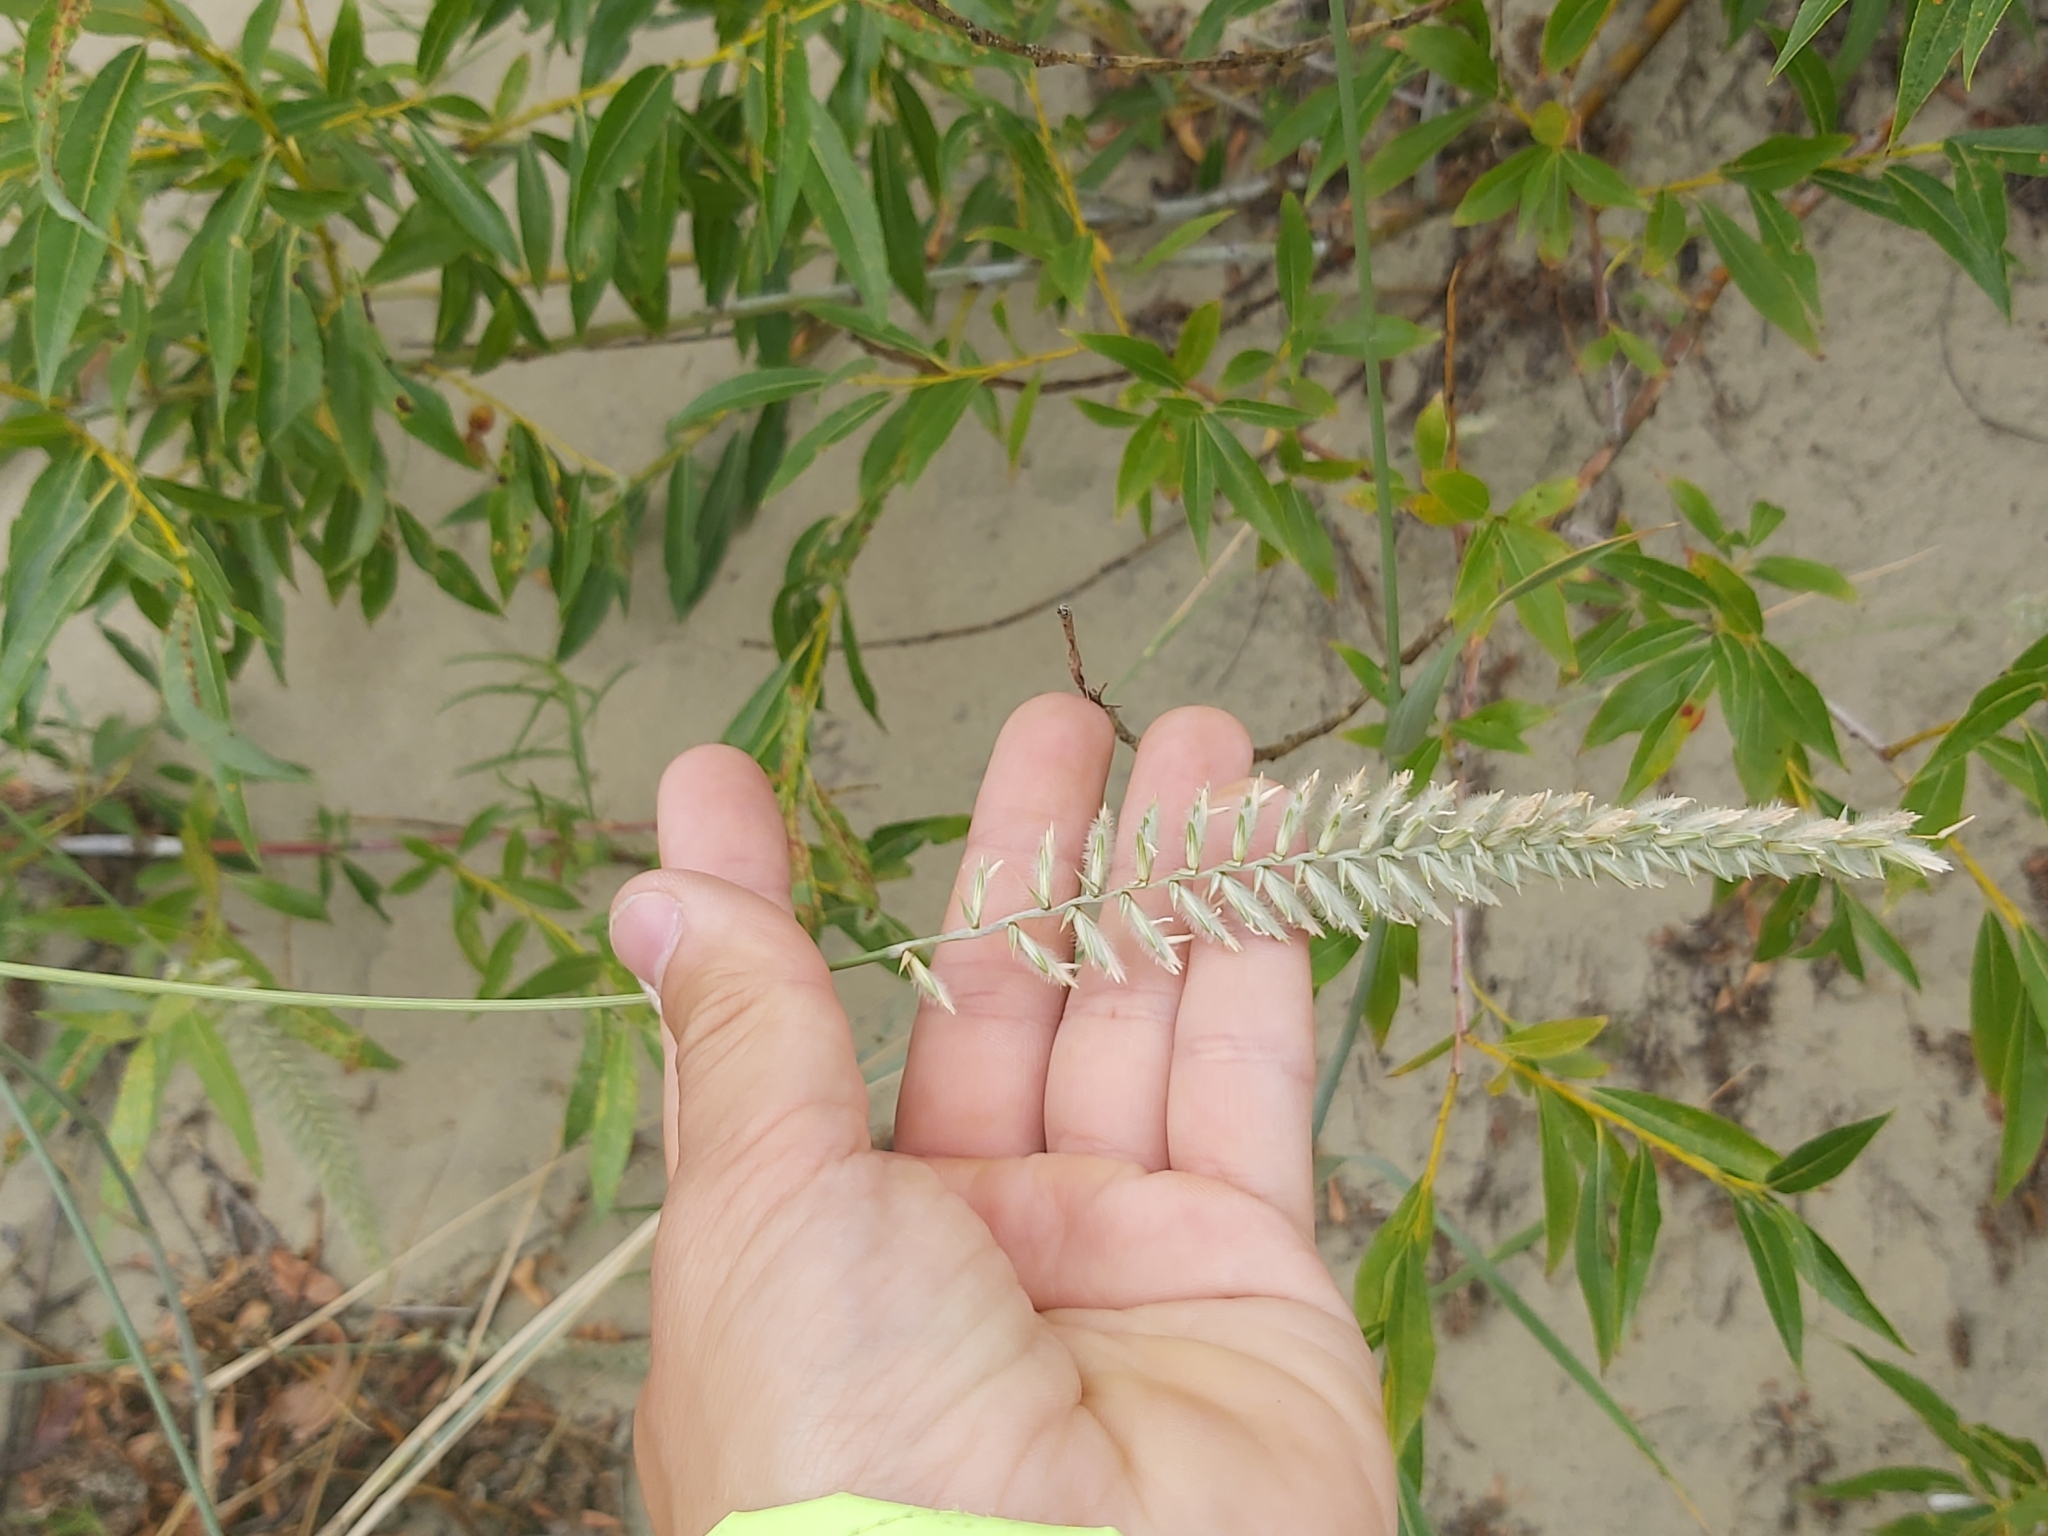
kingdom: Plantae
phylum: Tracheophyta
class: Liliopsida
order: Poales
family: Poaceae
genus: Agropyron
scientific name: Agropyron dasyanthum
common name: Edge flowered crested wheatgrass
